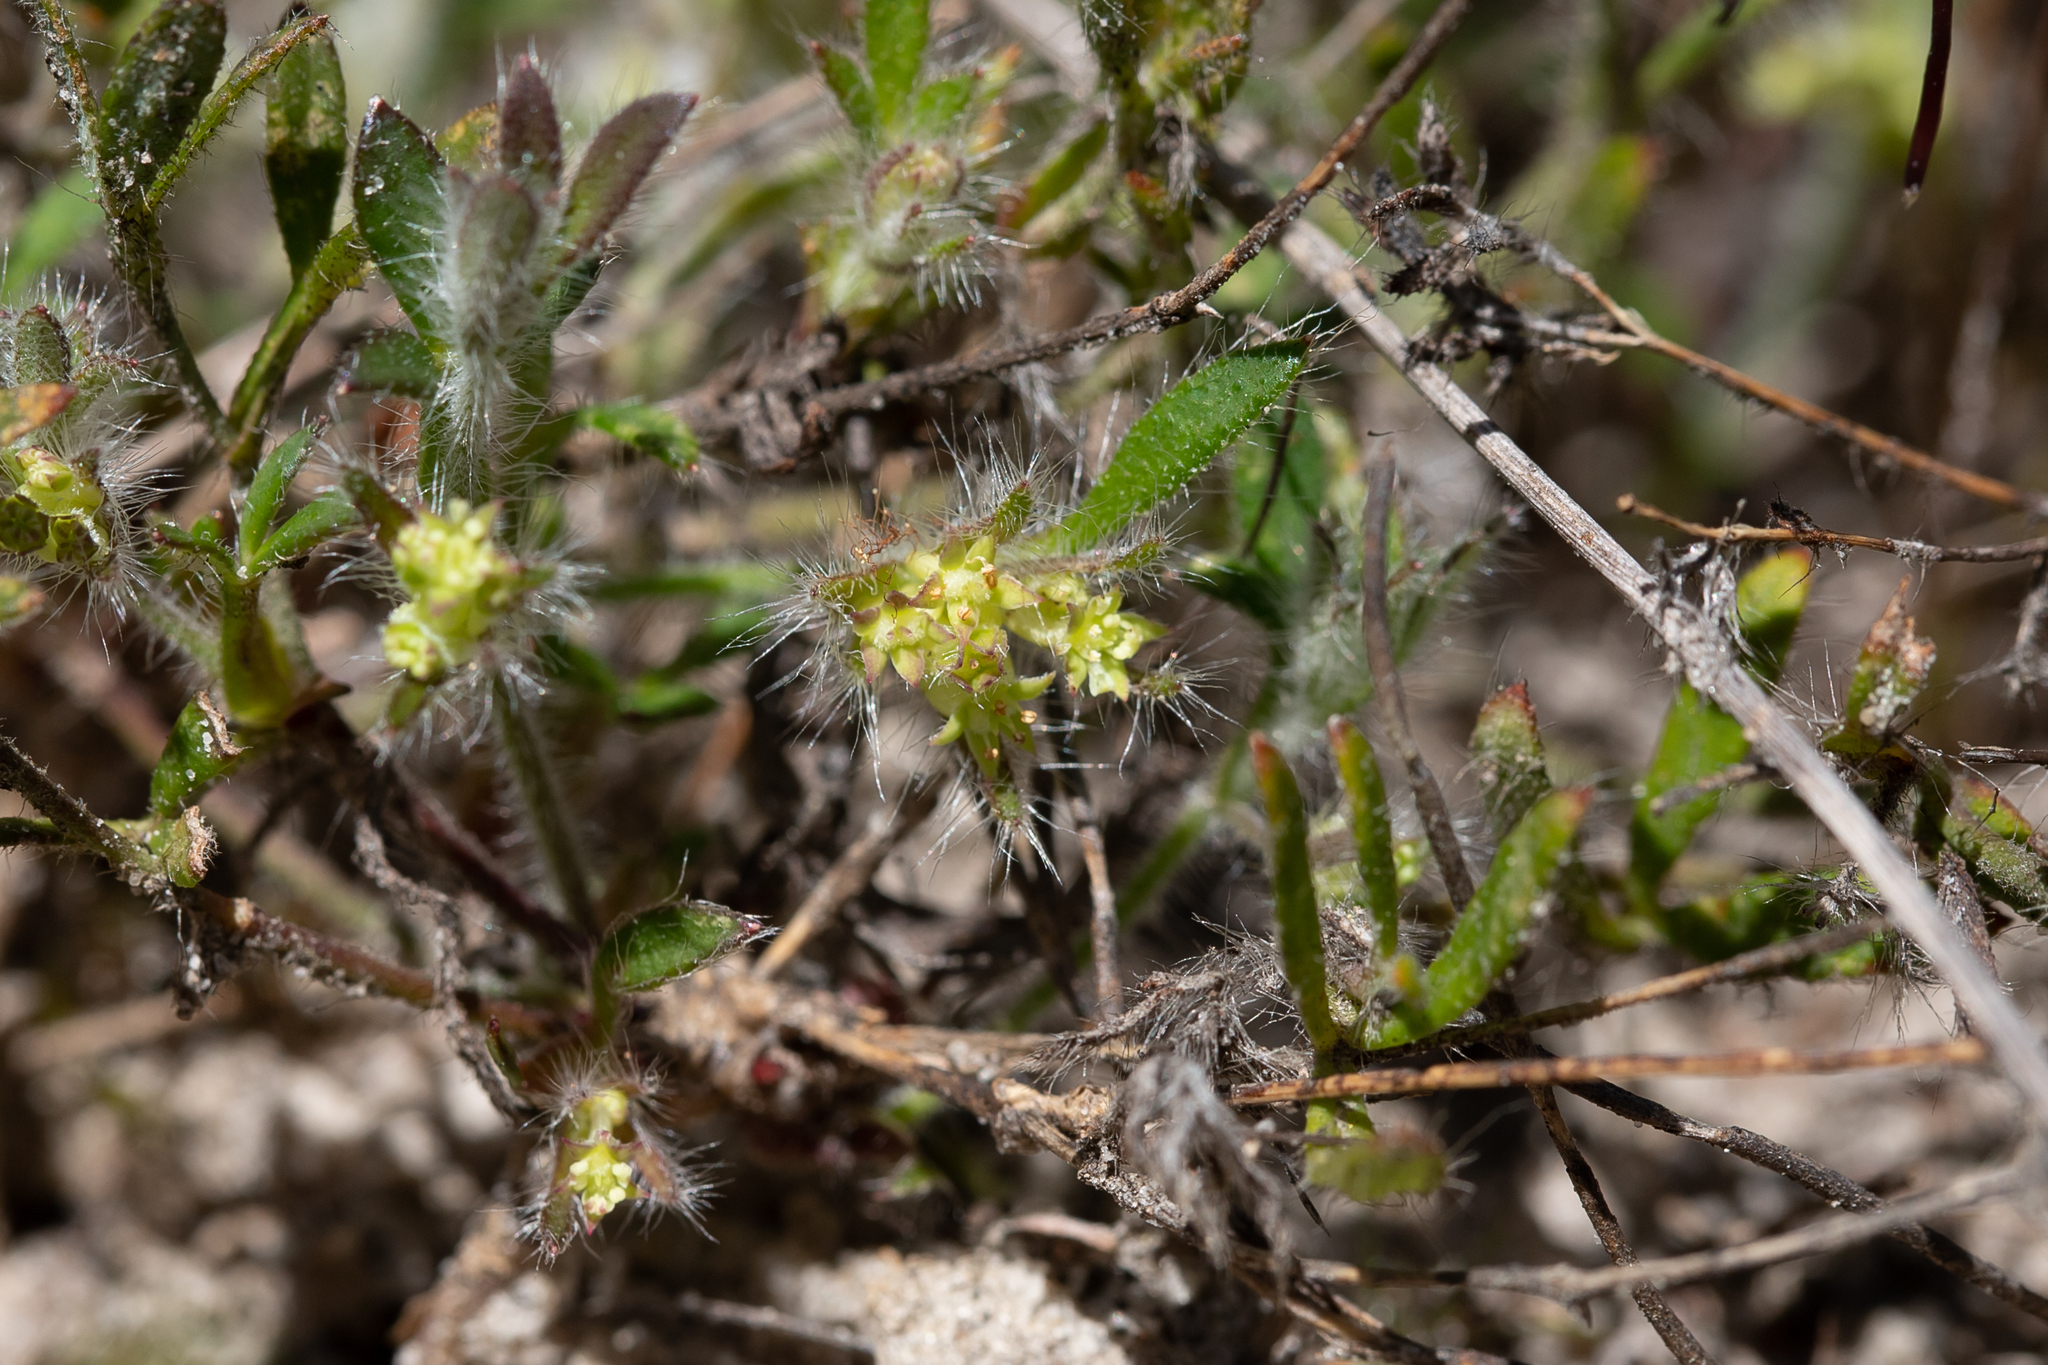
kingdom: Plantae
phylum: Tracheophyta
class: Magnoliopsida
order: Apiales
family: Apiaceae
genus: Xanthosia
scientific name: Xanthosia huegelii
